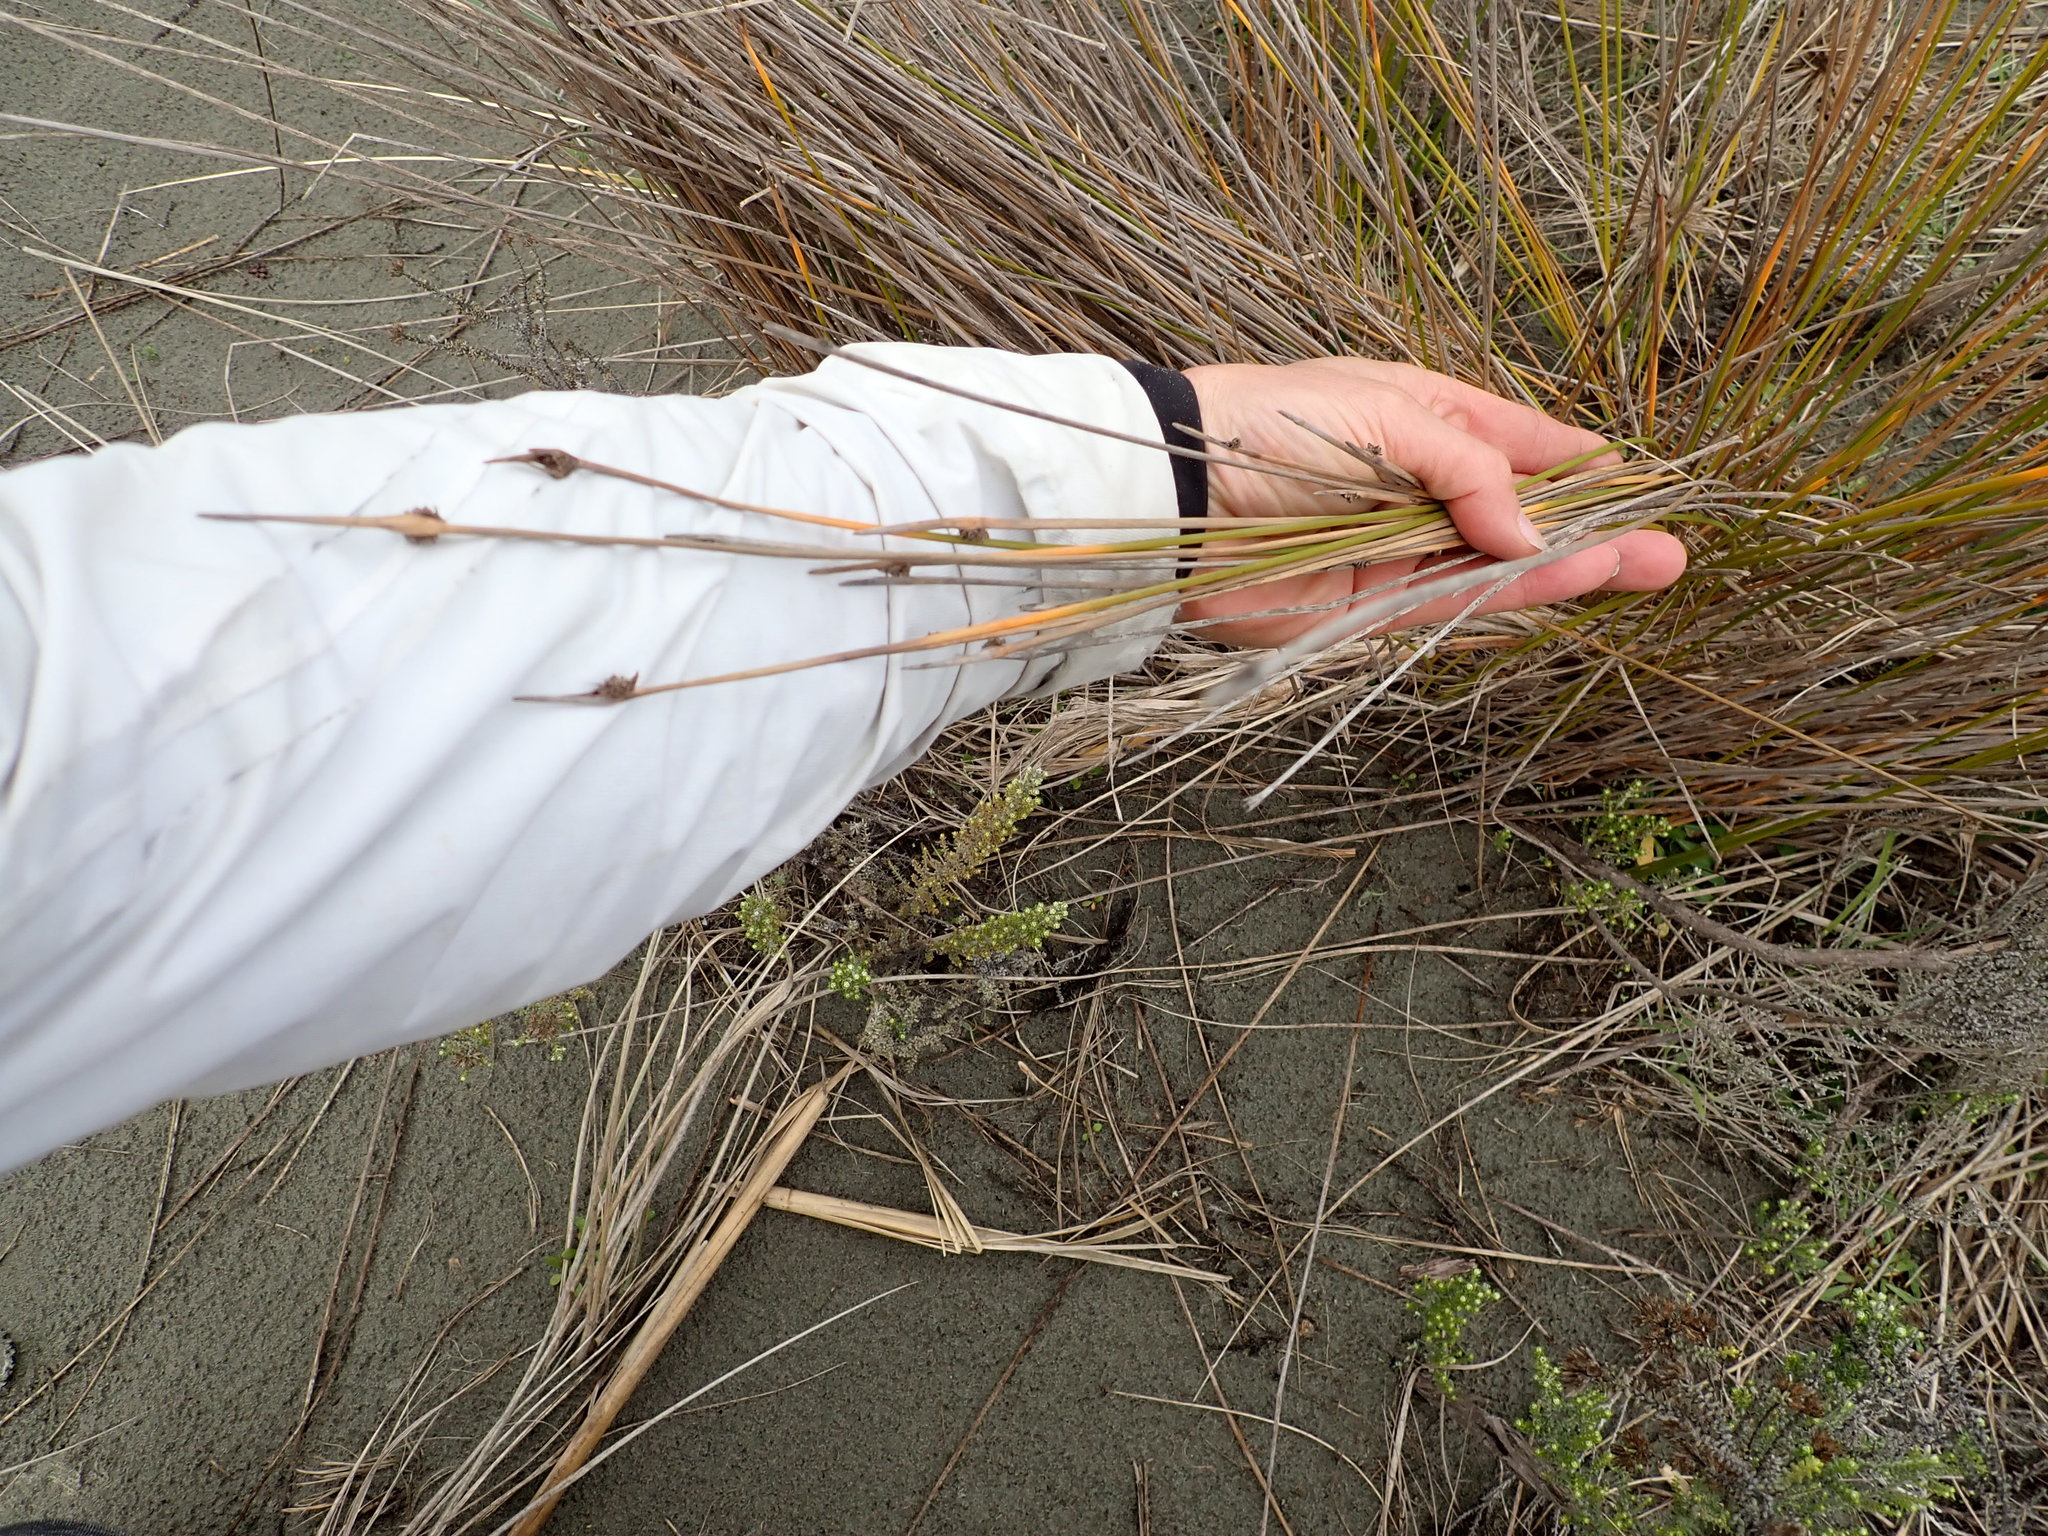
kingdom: Plantae
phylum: Tracheophyta
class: Liliopsida
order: Poales
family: Cyperaceae
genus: Ficinia
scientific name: Ficinia nodosa
